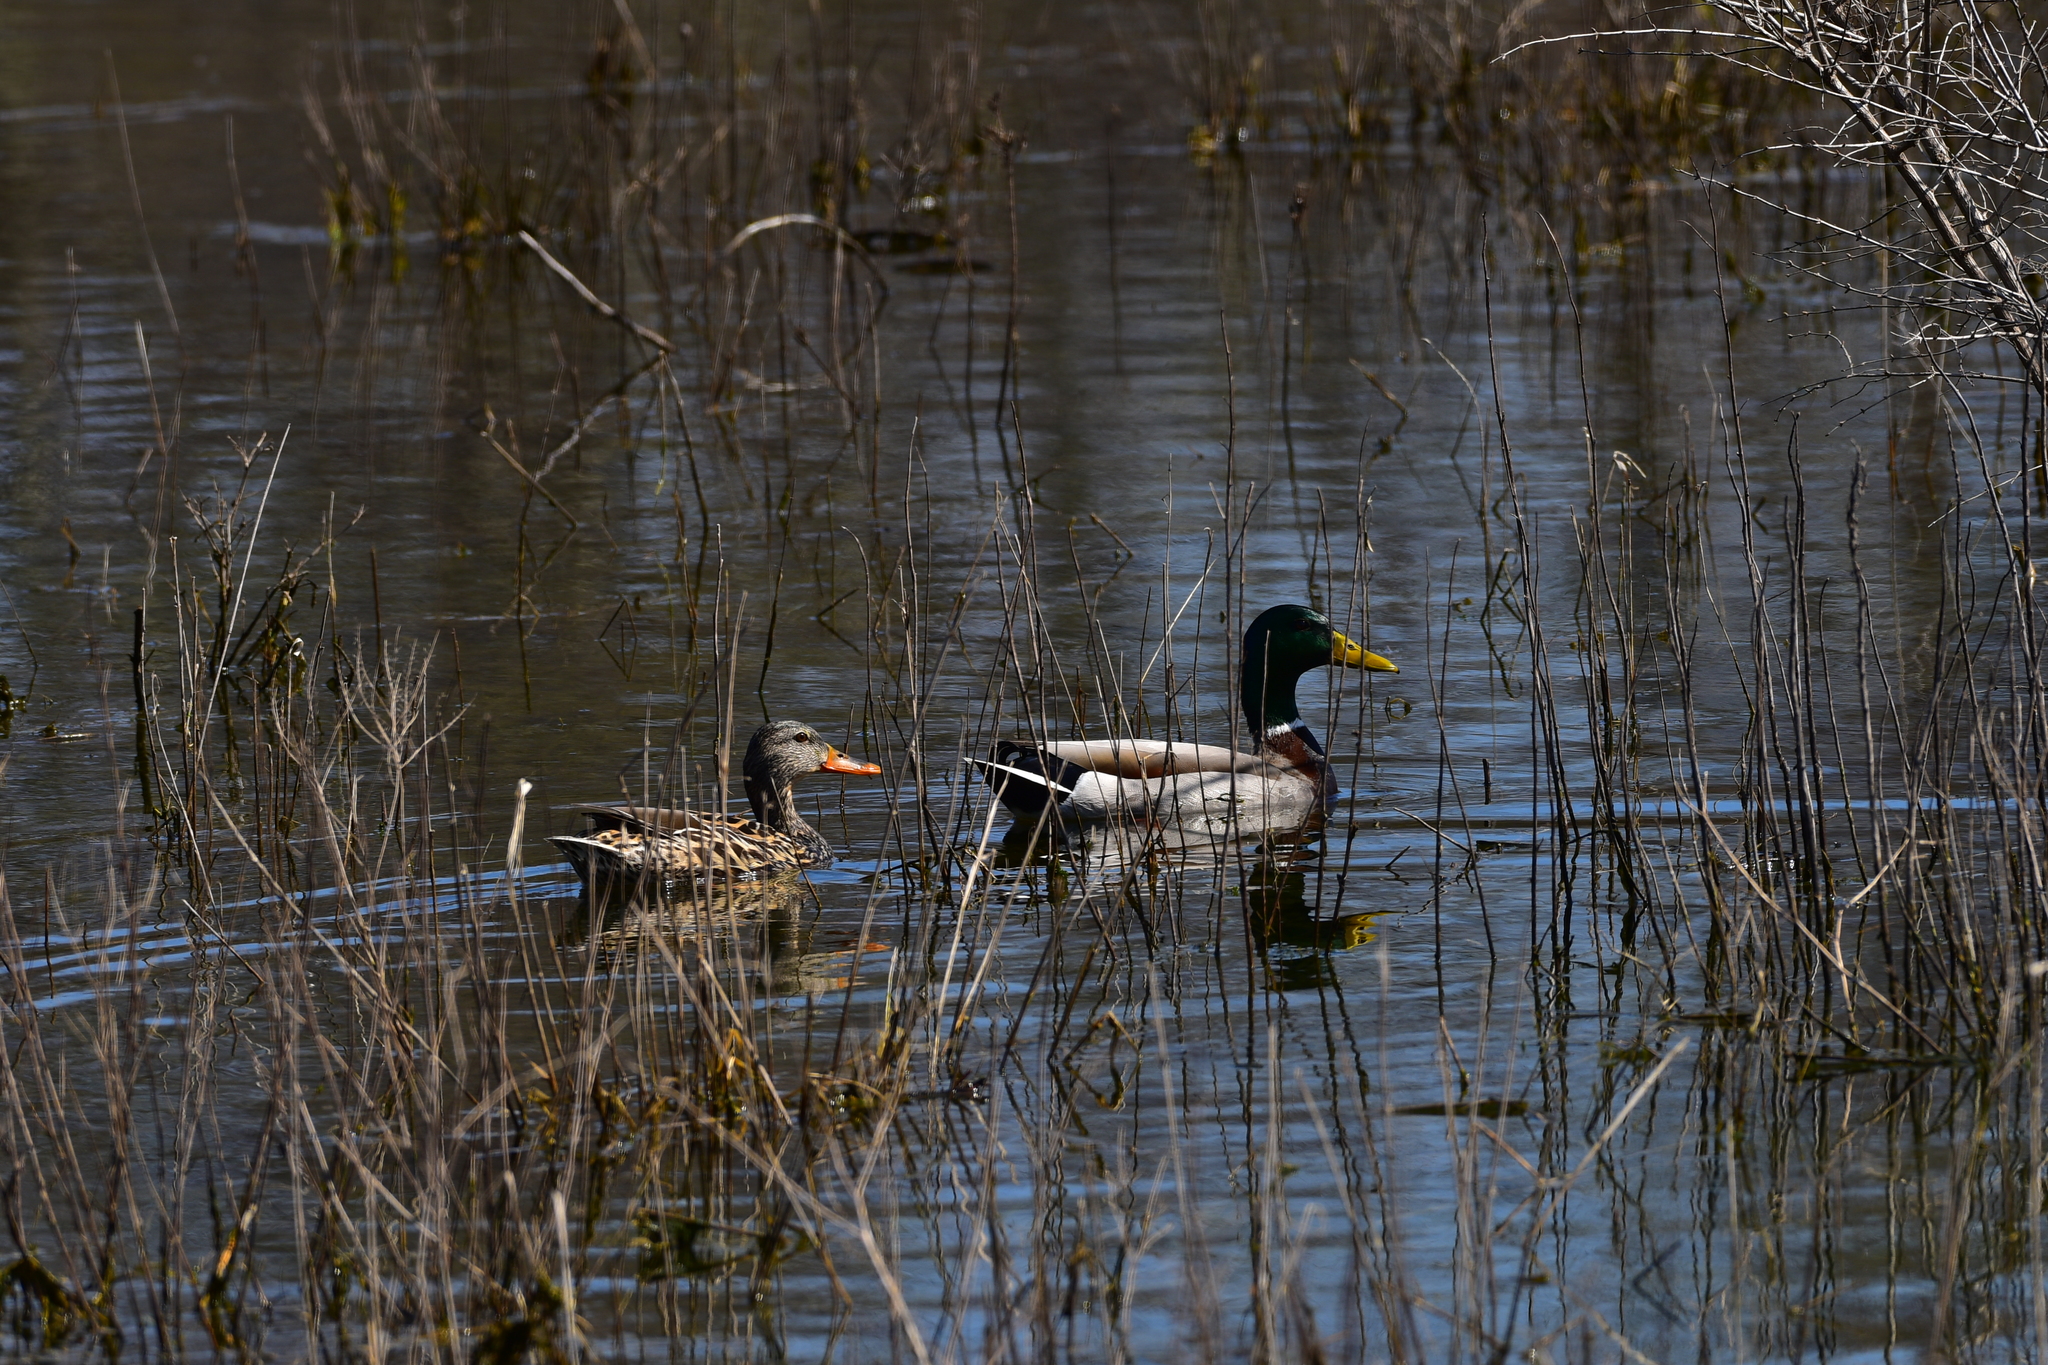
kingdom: Animalia
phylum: Chordata
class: Aves
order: Anseriformes
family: Anatidae
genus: Anas
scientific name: Anas platyrhynchos
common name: Mallard
